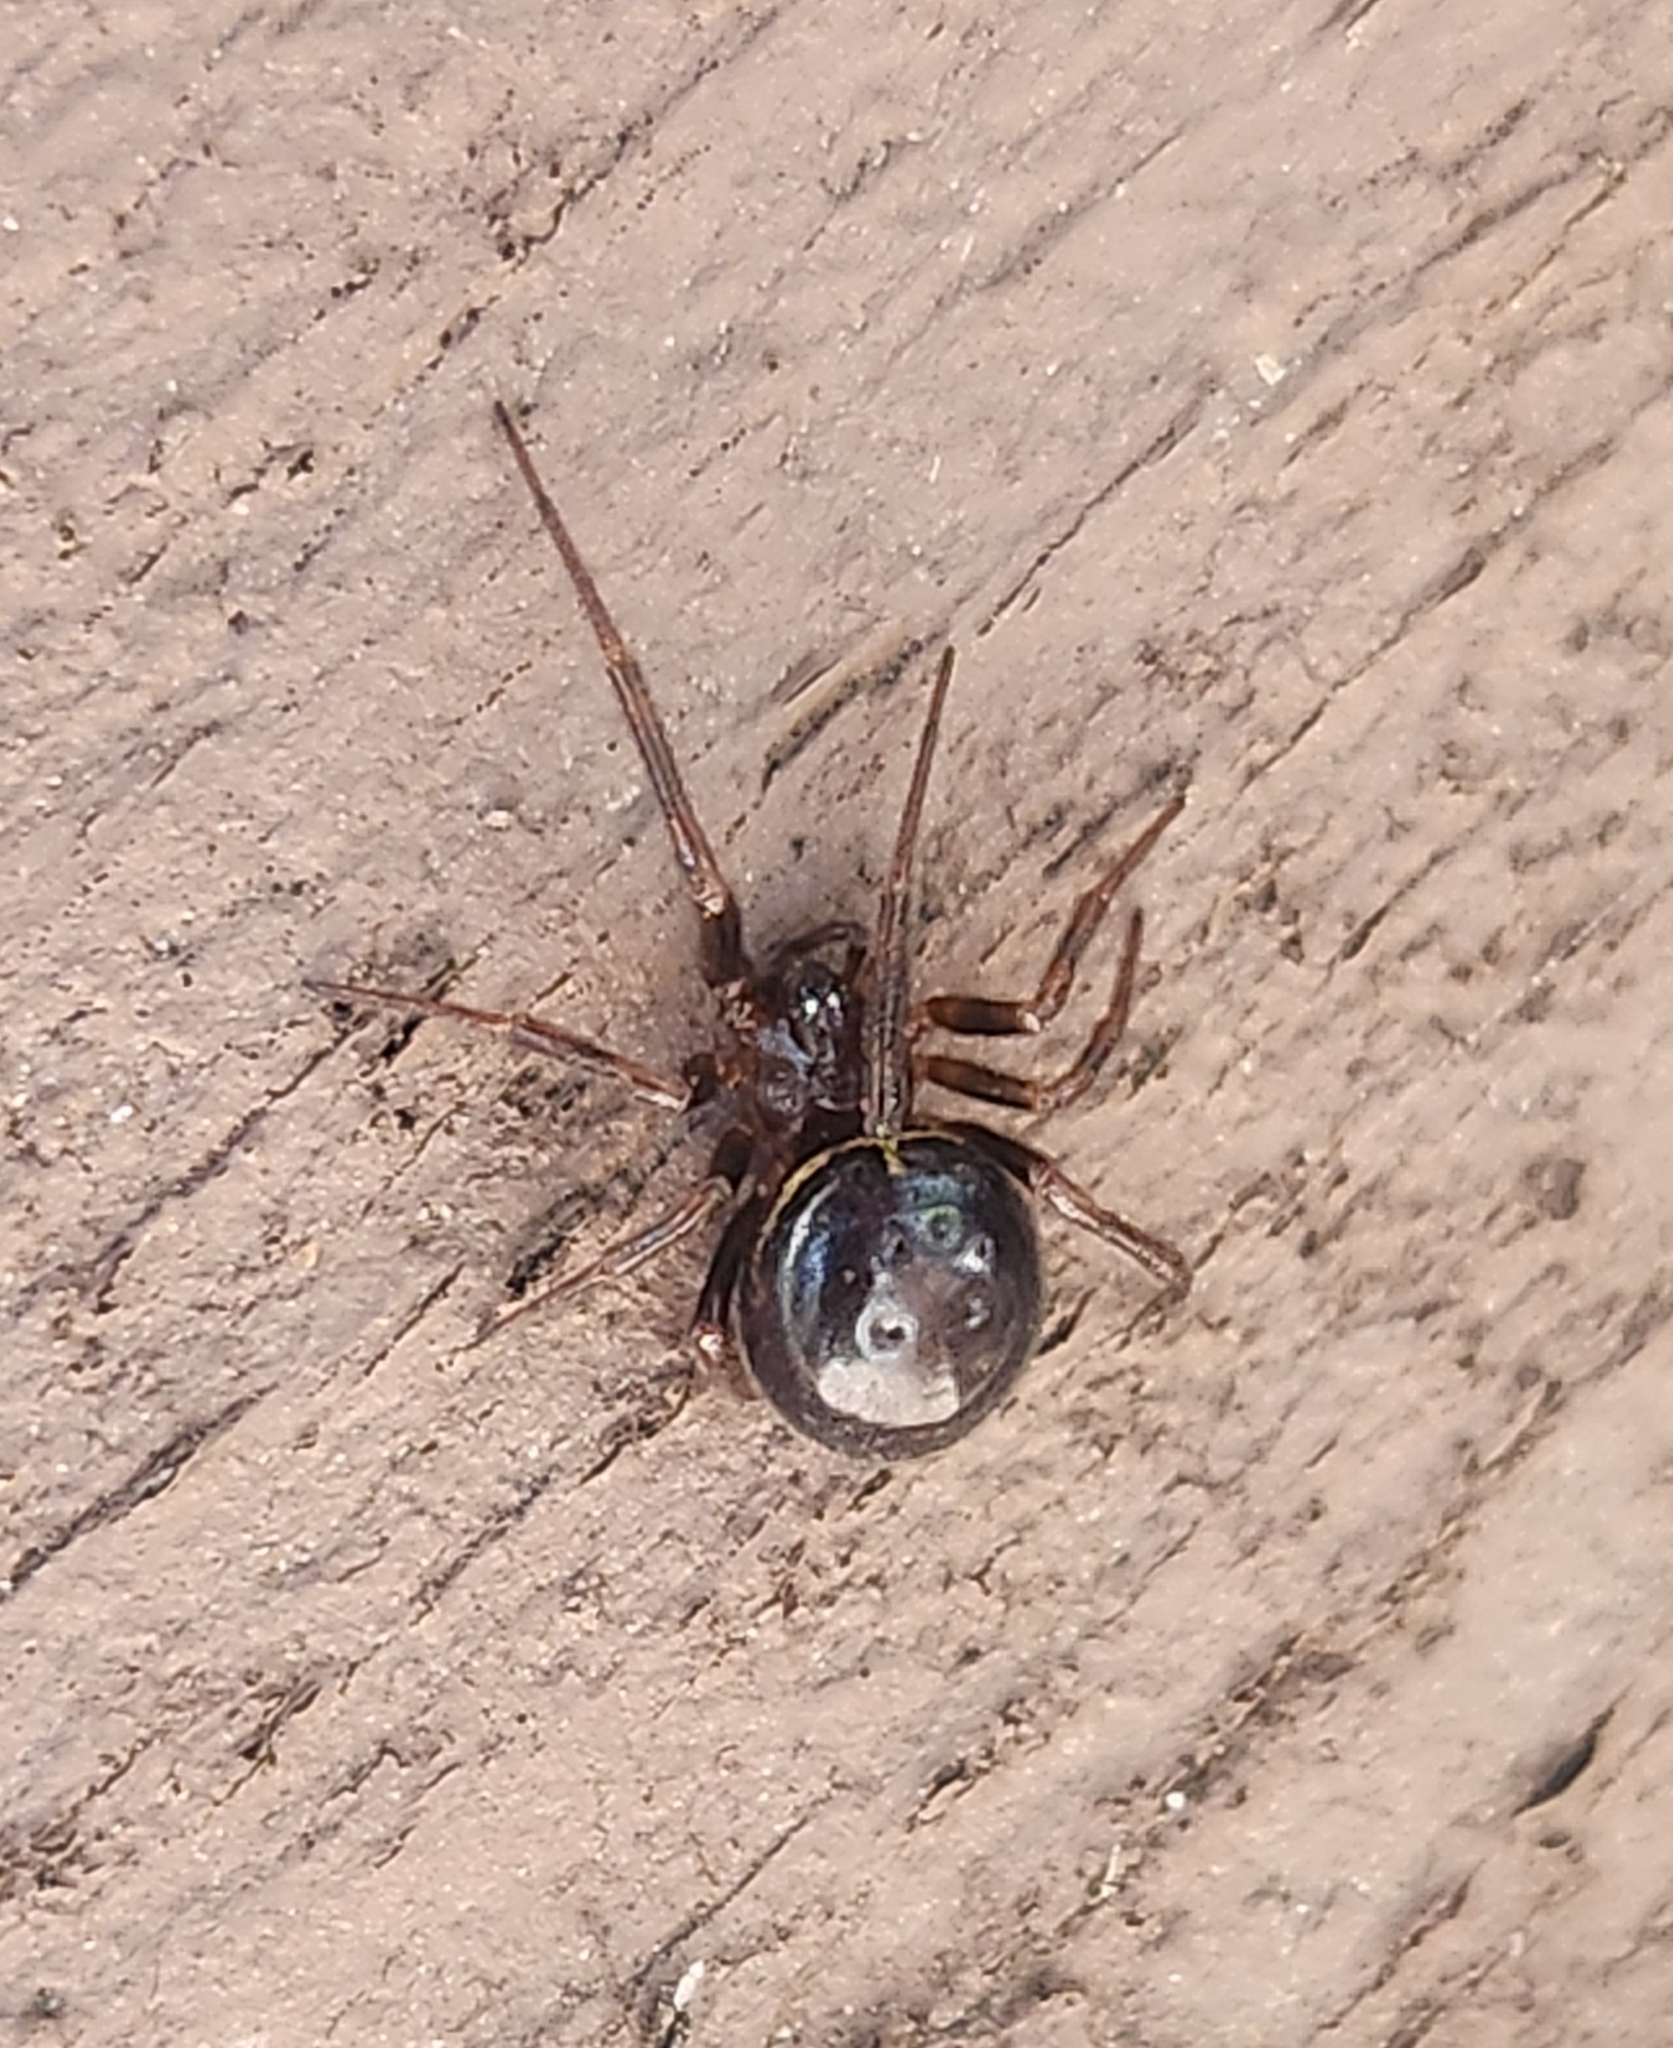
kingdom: Animalia
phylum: Arthropoda
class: Arachnida
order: Araneae
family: Theridiidae
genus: Steatoda
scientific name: Steatoda hespera
